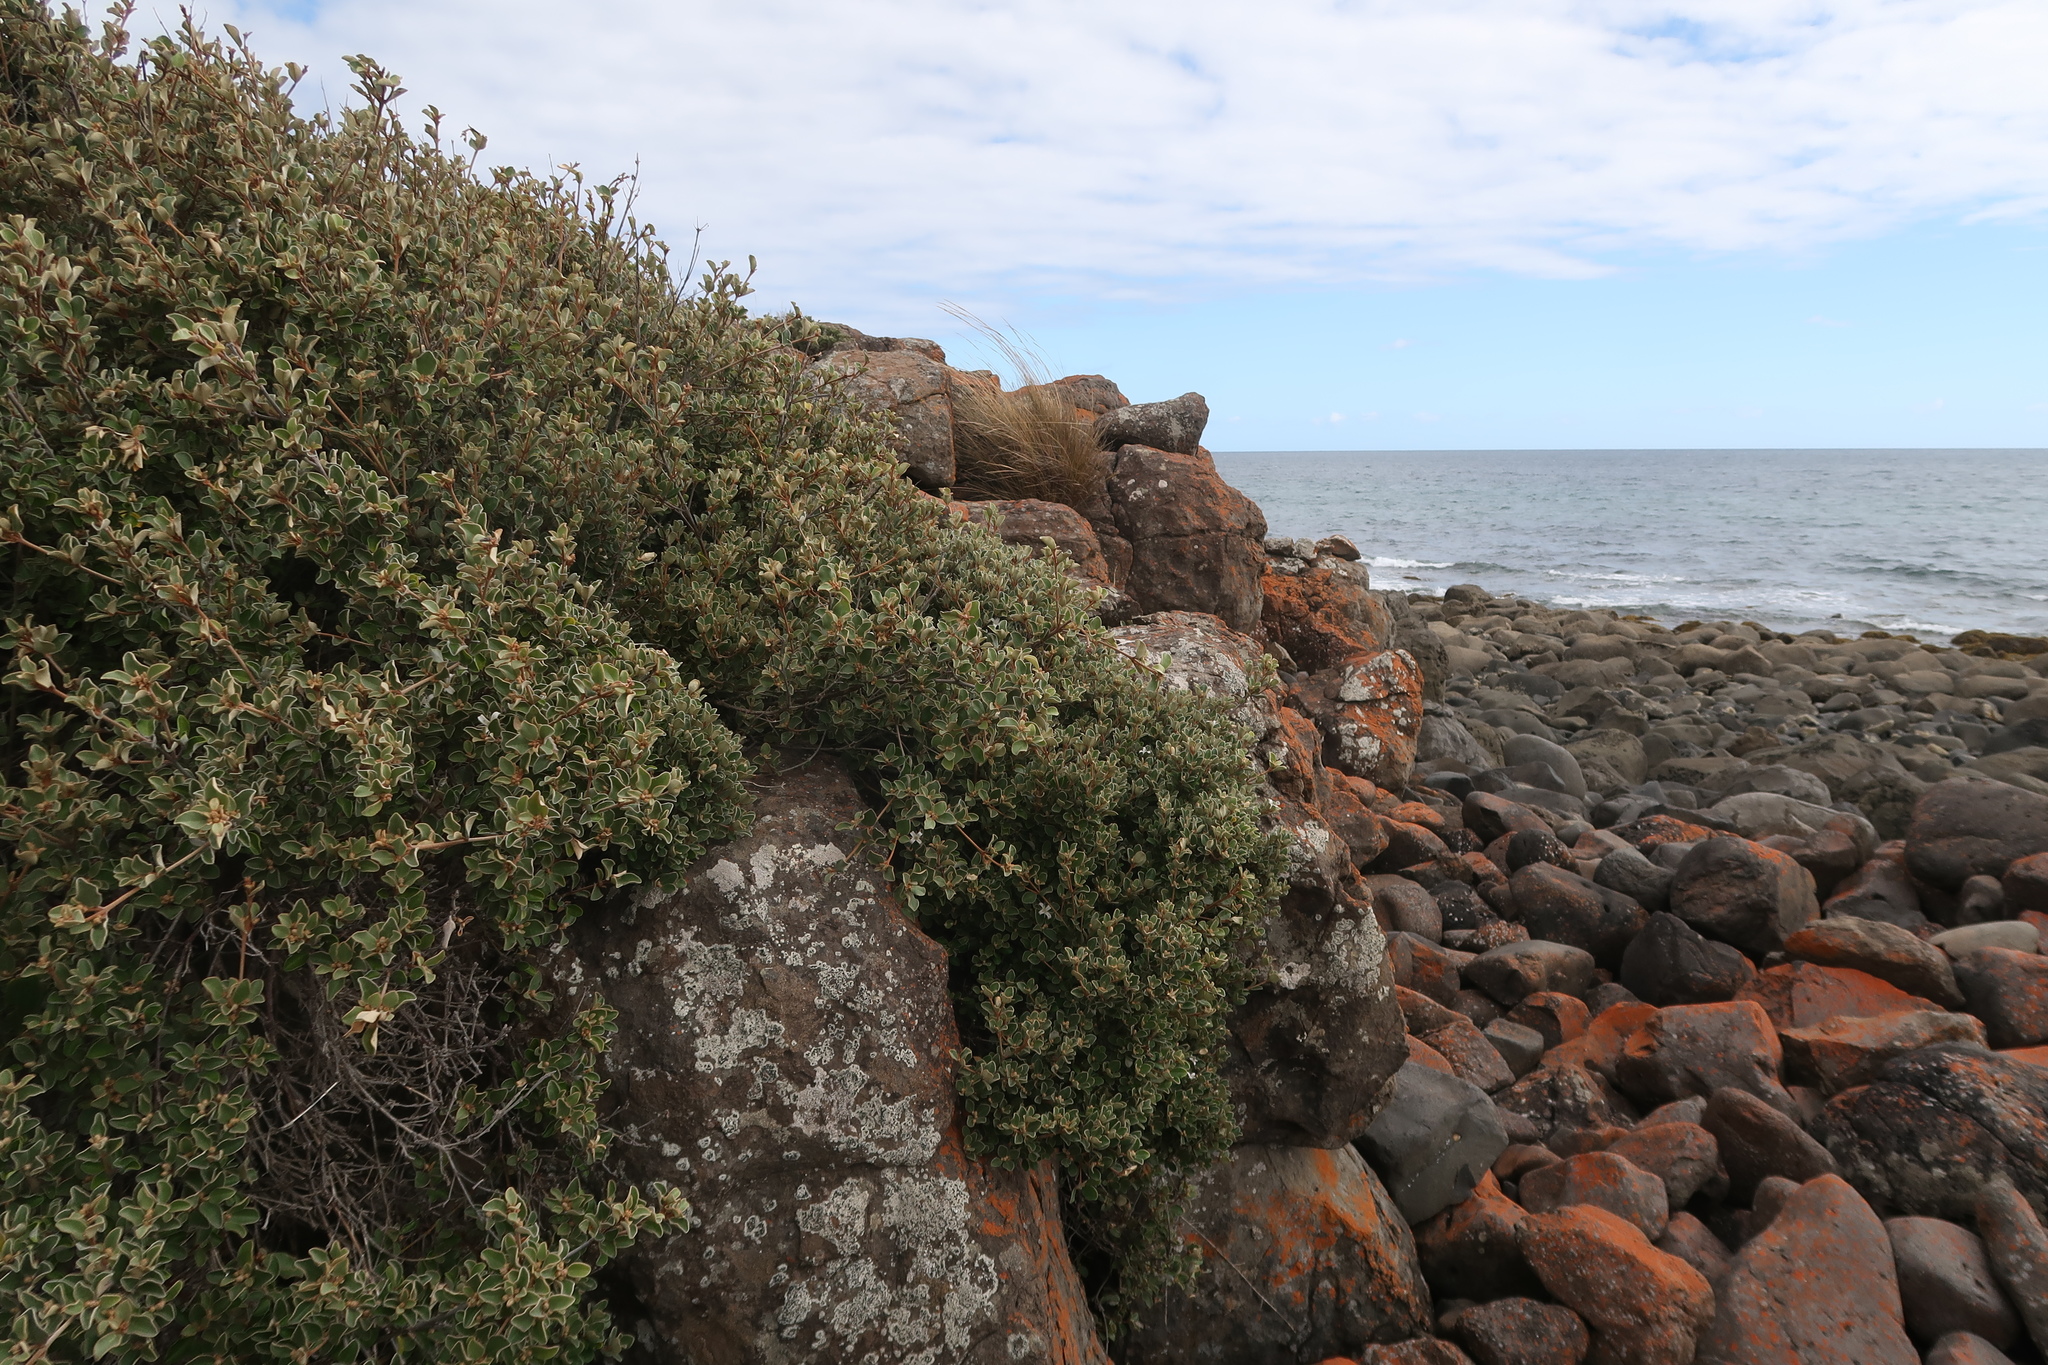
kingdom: Plantae
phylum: Tracheophyta
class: Magnoliopsida
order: Sapindales
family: Rutaceae
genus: Correa
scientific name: Correa alba
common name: White correa
